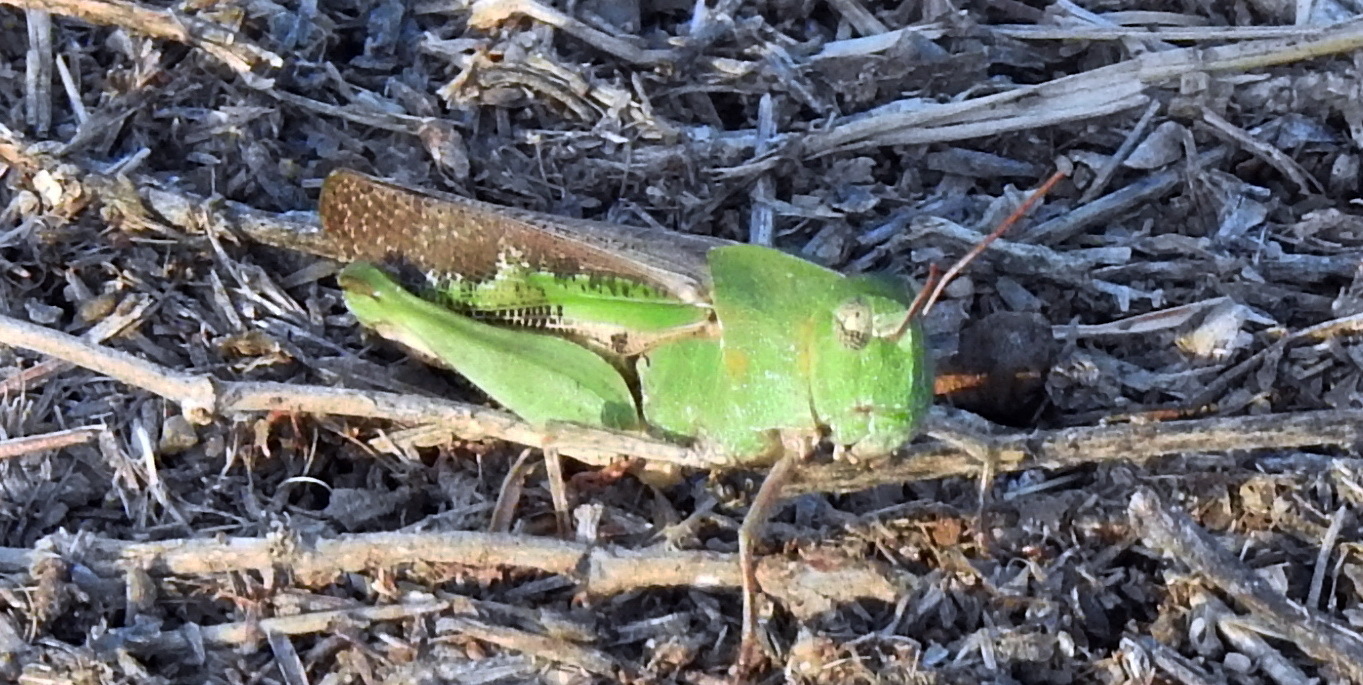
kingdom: Animalia
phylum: Arthropoda
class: Insecta
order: Orthoptera
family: Acrididae
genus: Chortophaga
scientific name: Chortophaga viridifasciata
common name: Green-striped grasshopper
